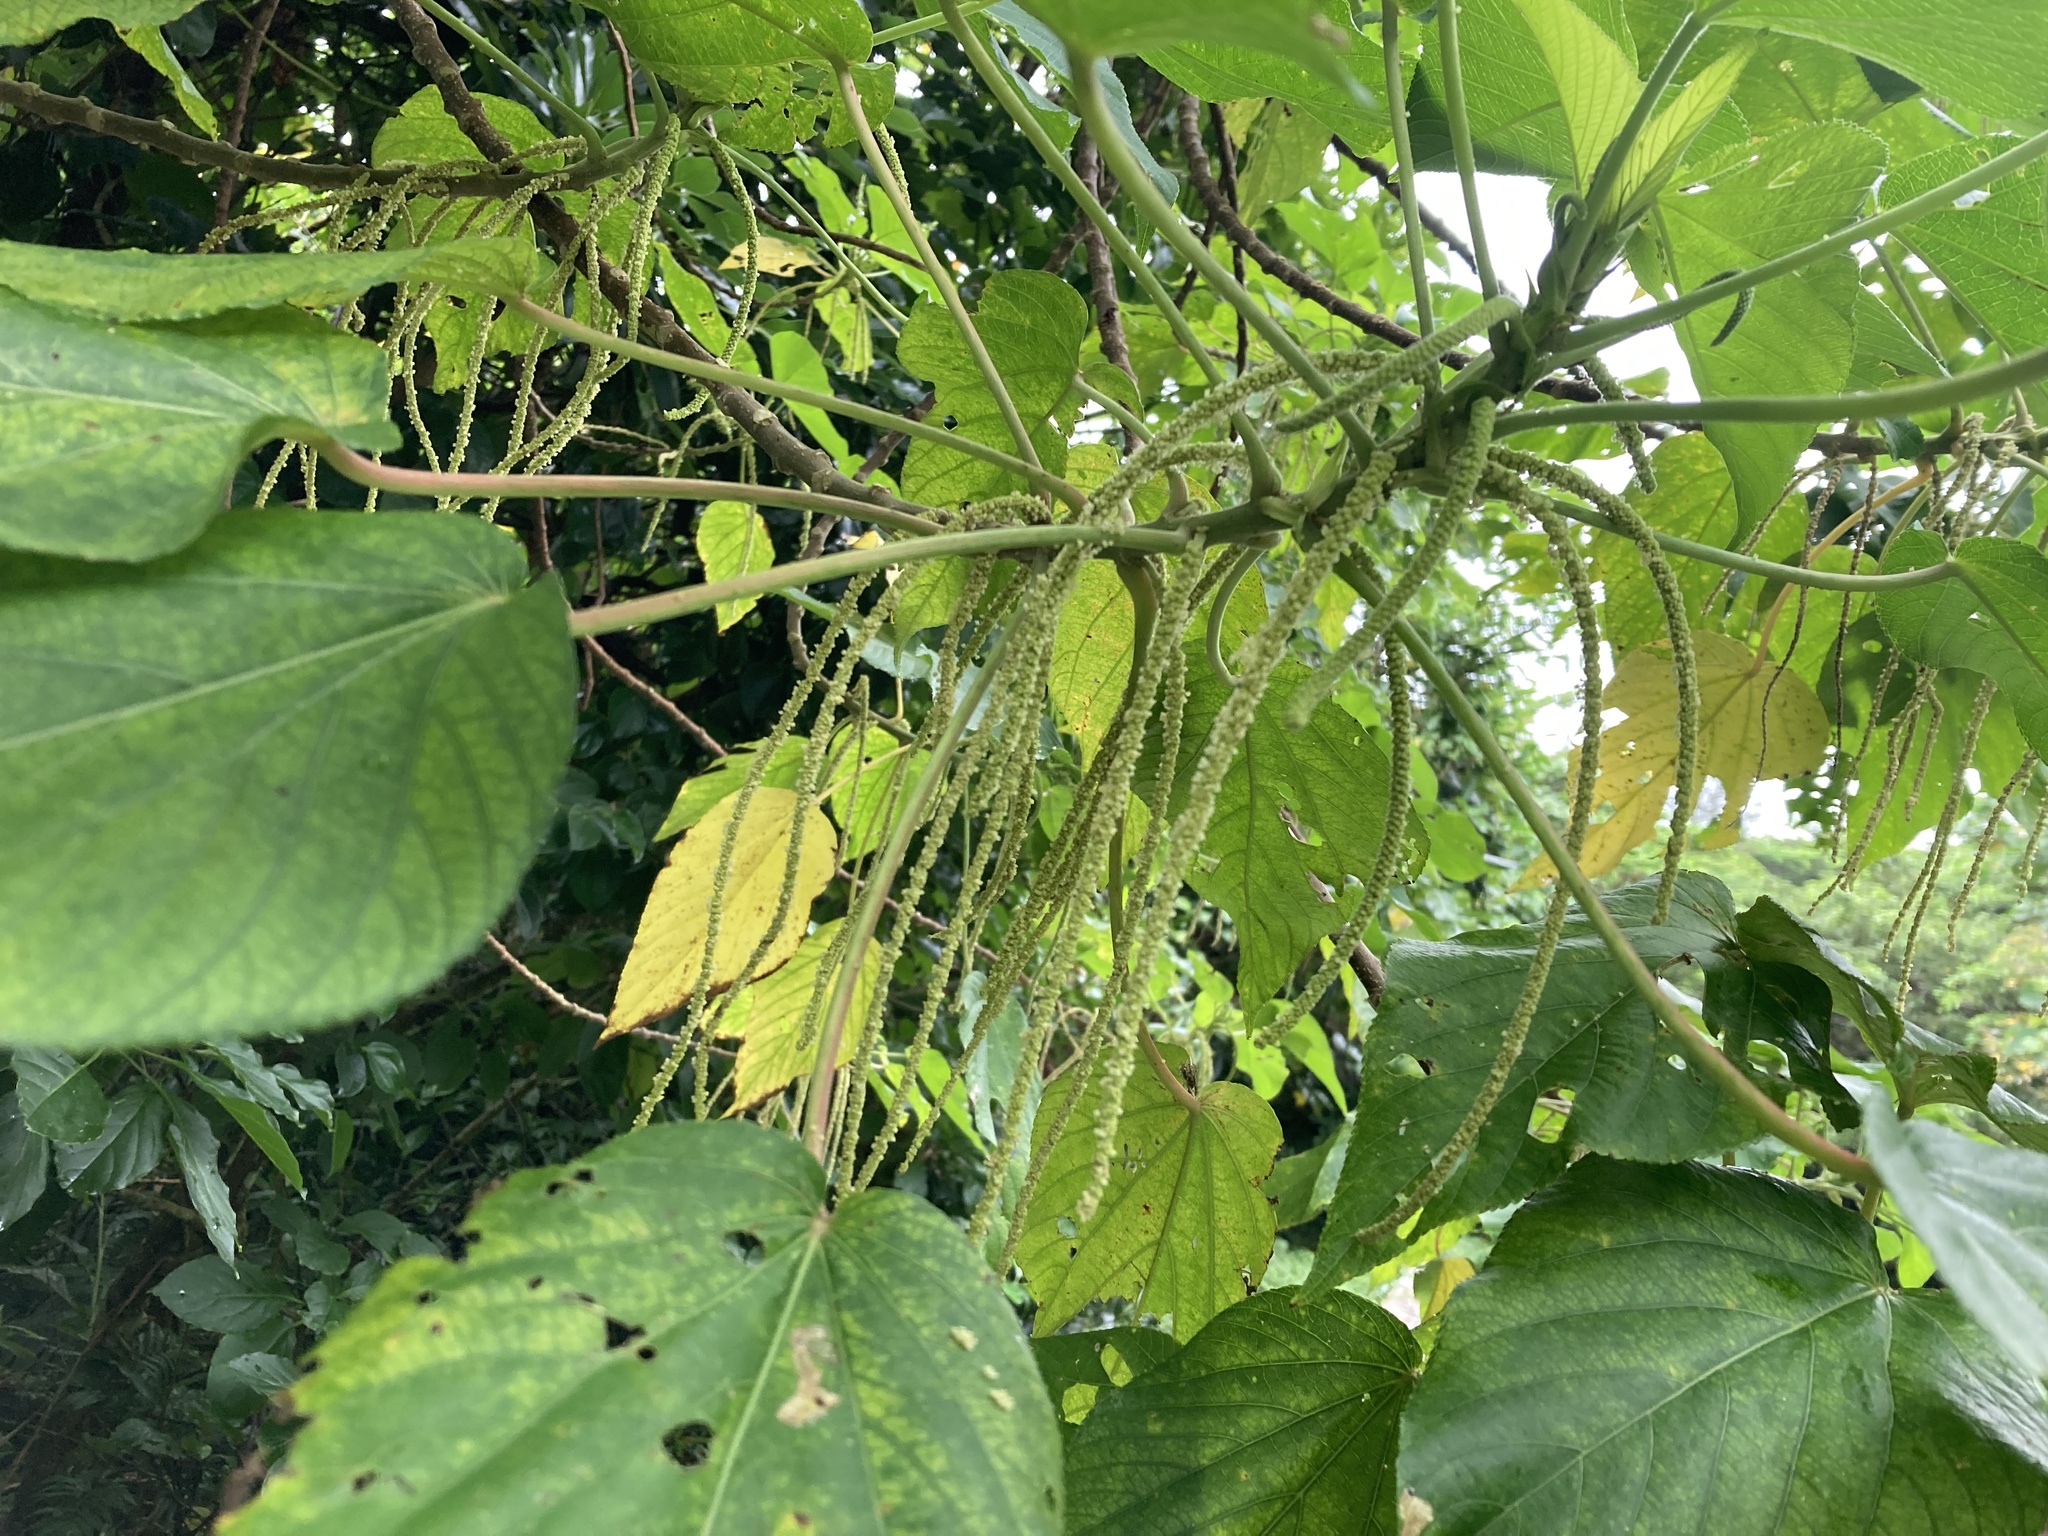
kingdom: Plantae
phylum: Tracheophyta
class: Magnoliopsida
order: Malpighiales
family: Euphorbiaceae
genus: Acalypha
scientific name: Acalypha grandibracteata
